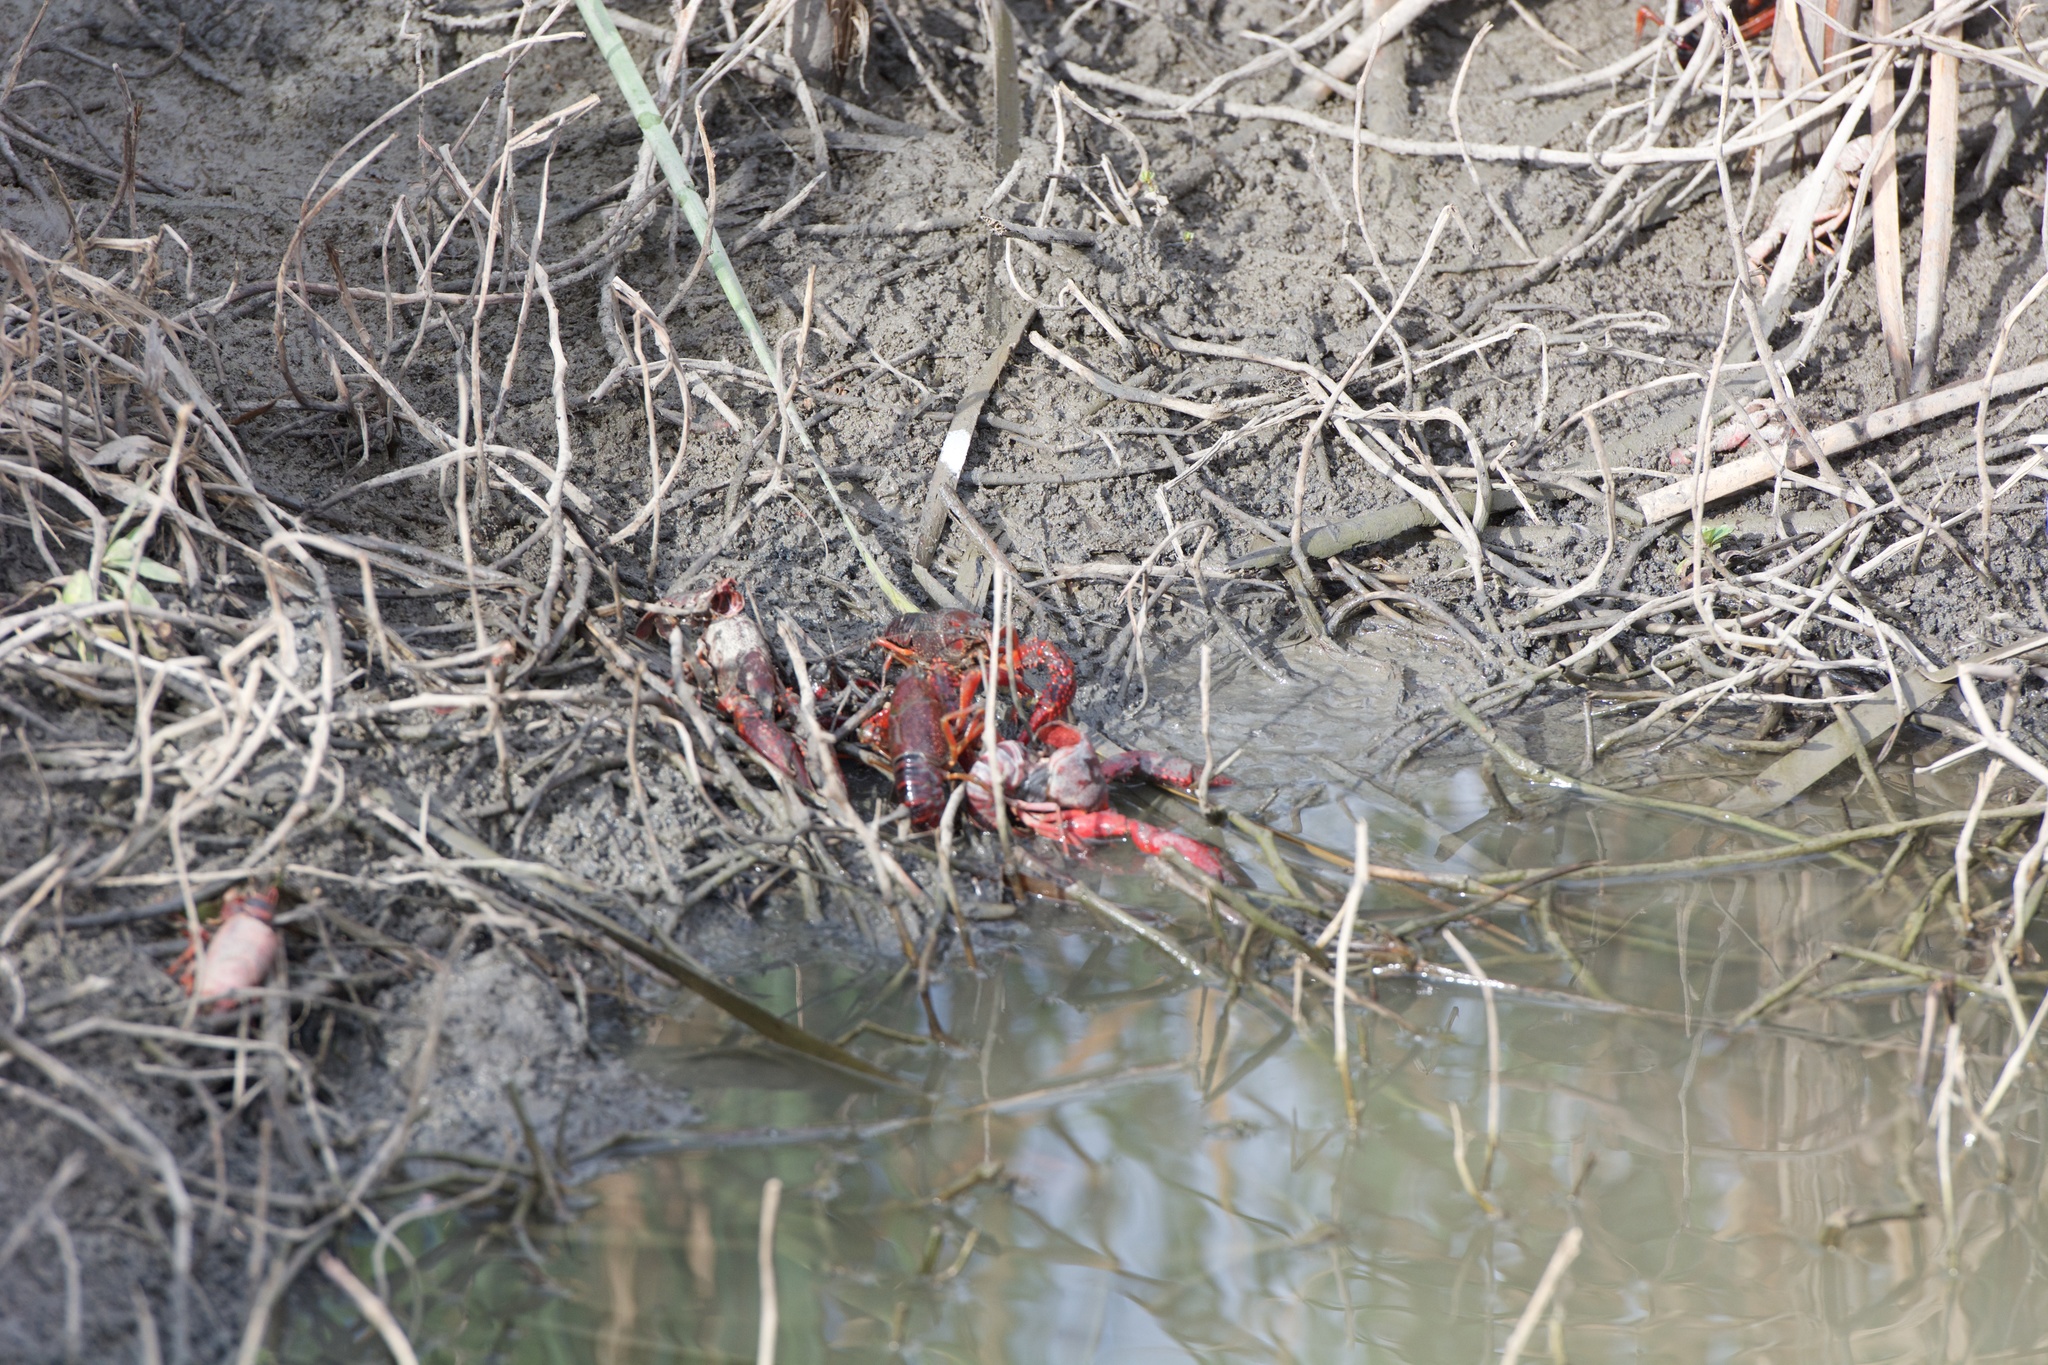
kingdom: Animalia
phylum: Arthropoda
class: Malacostraca
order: Decapoda
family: Cambaridae
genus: Procambarus
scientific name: Procambarus clarkii
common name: Red swamp crayfish
